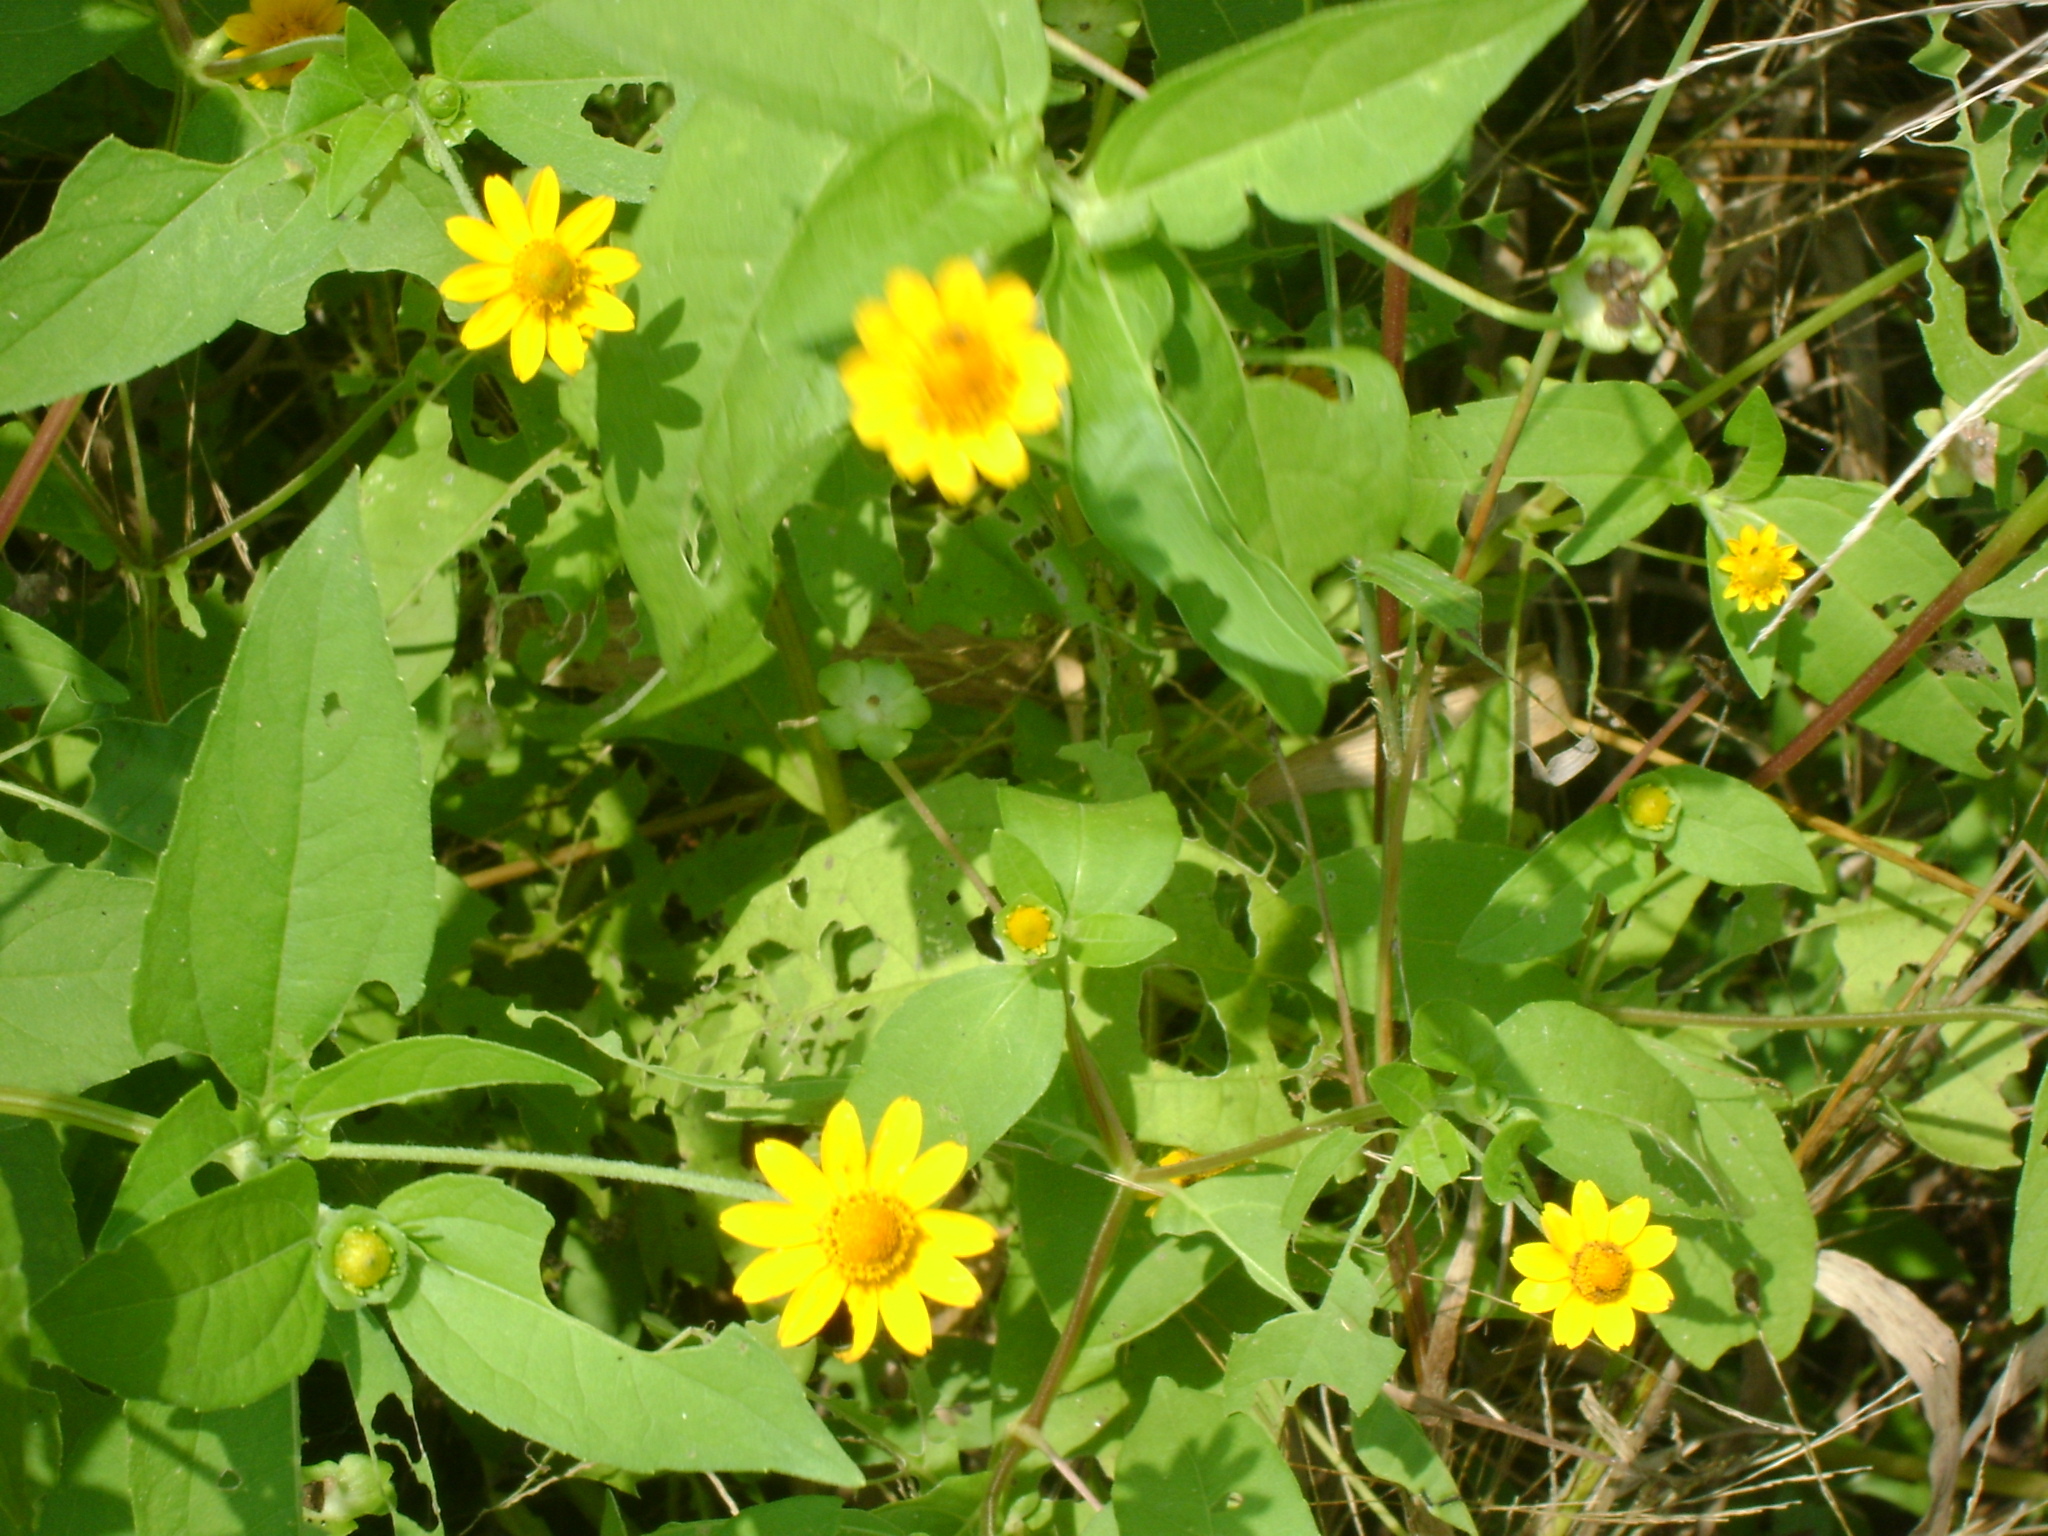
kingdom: Plantae
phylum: Tracheophyta
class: Magnoliopsida
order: Asterales
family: Asteraceae
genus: Melampodium
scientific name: Melampodium divaricatum
